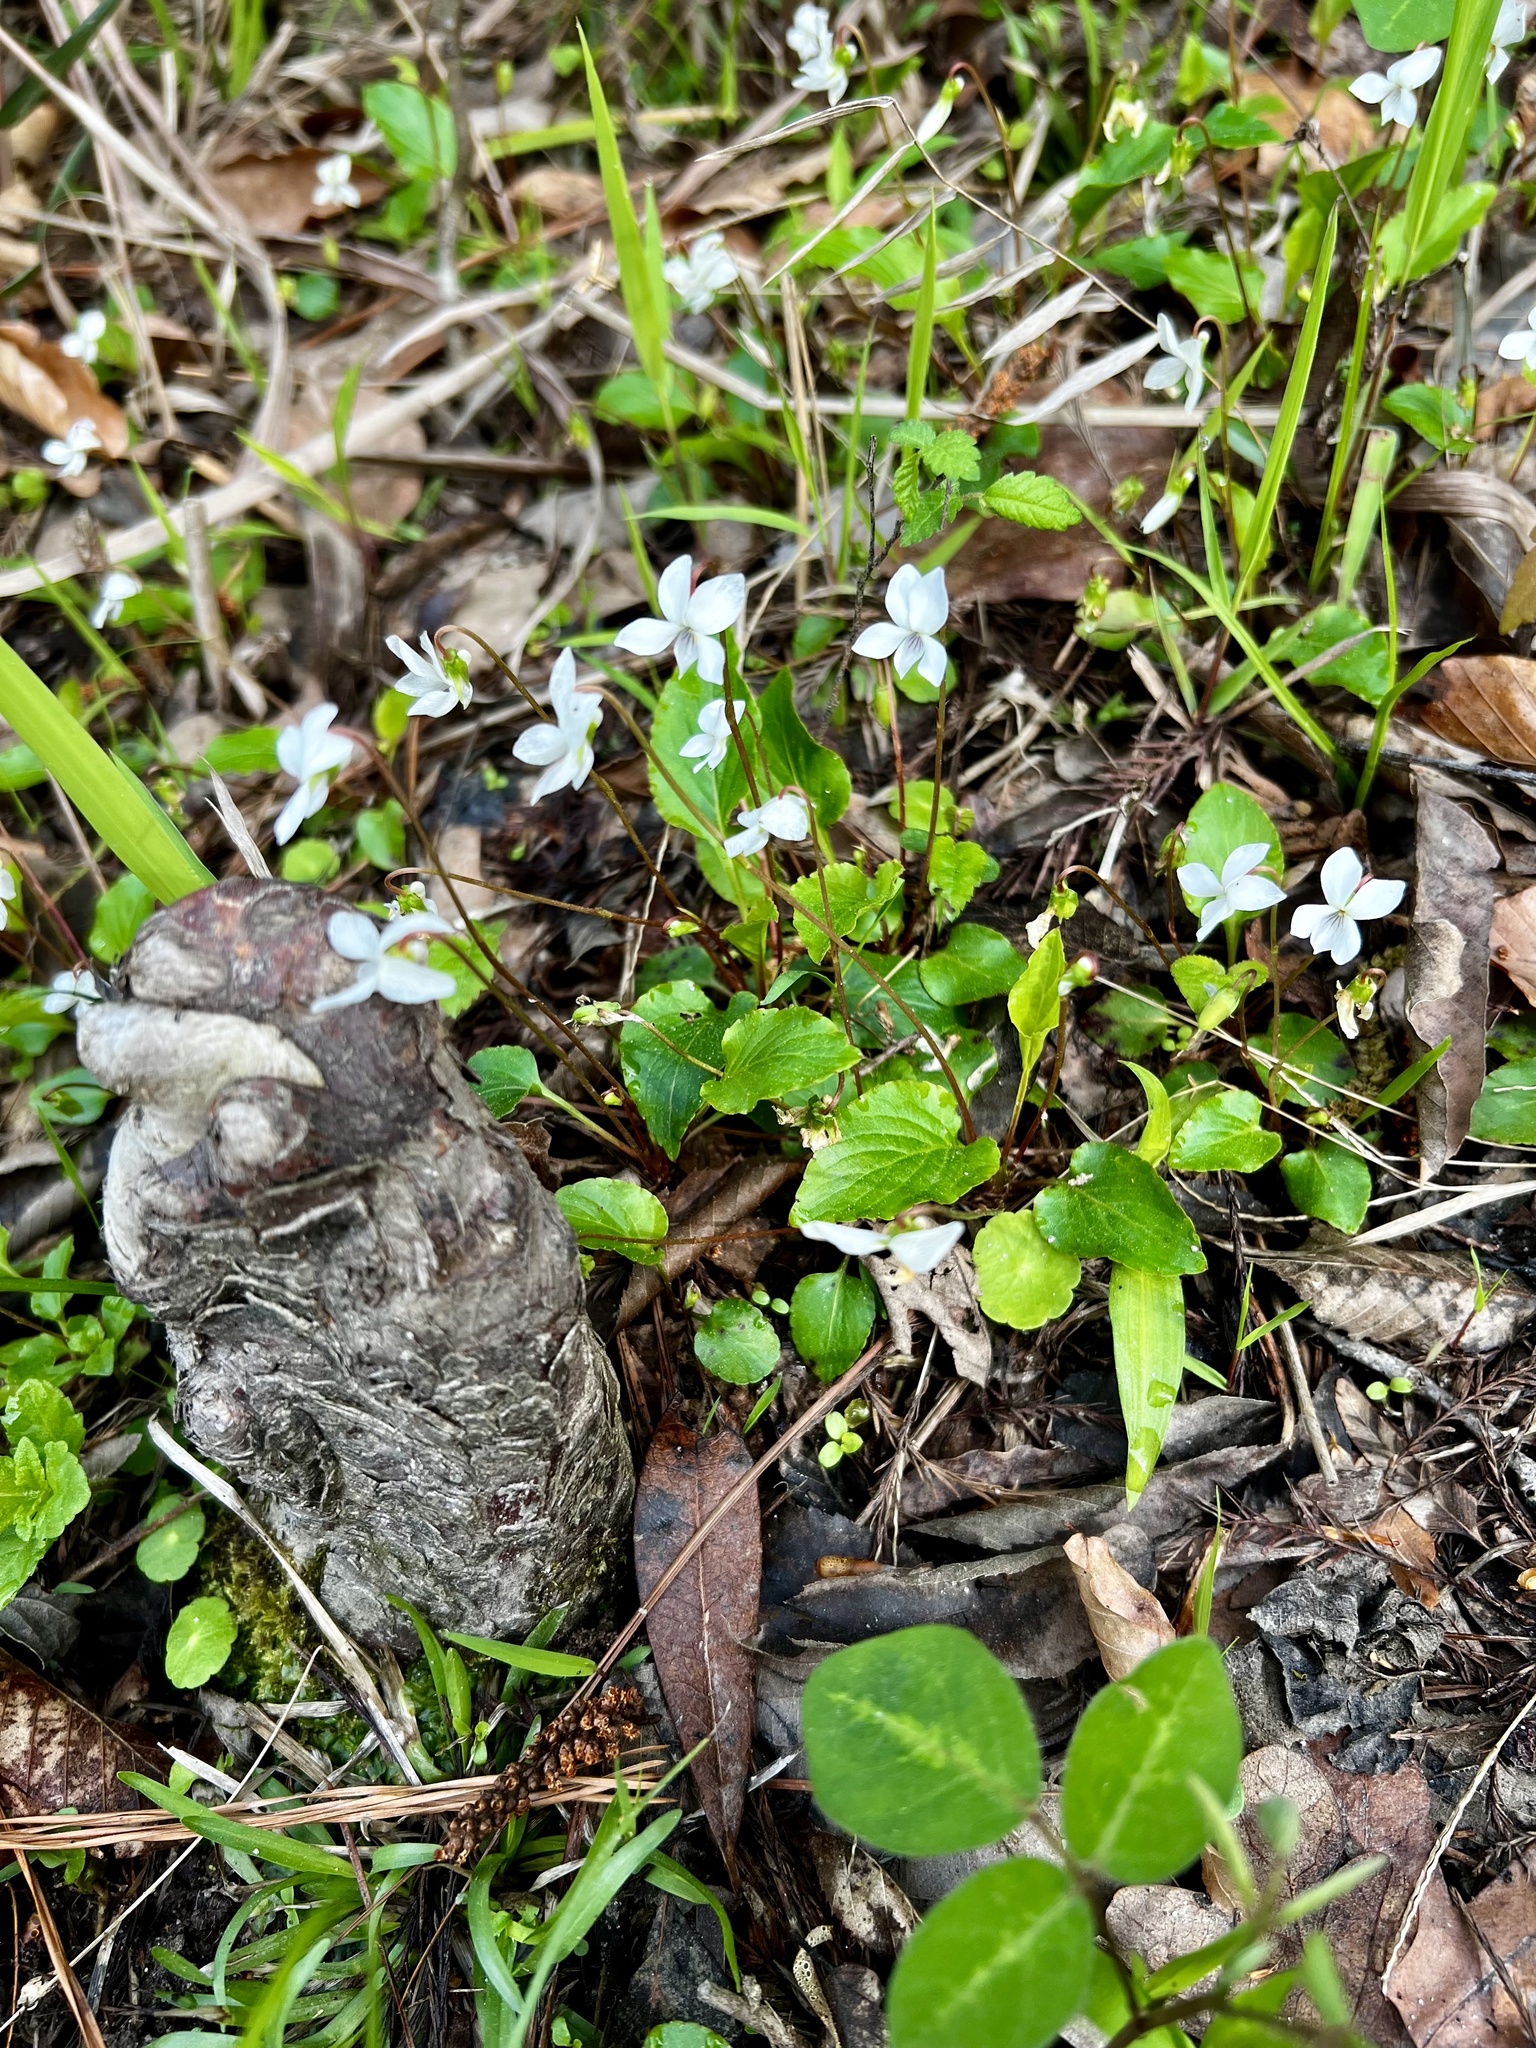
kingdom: Plantae
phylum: Tracheophyta
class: Magnoliopsida
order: Malpighiales
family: Violaceae
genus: Viola
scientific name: Viola primulifolia
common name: Primrose-leaf violet
